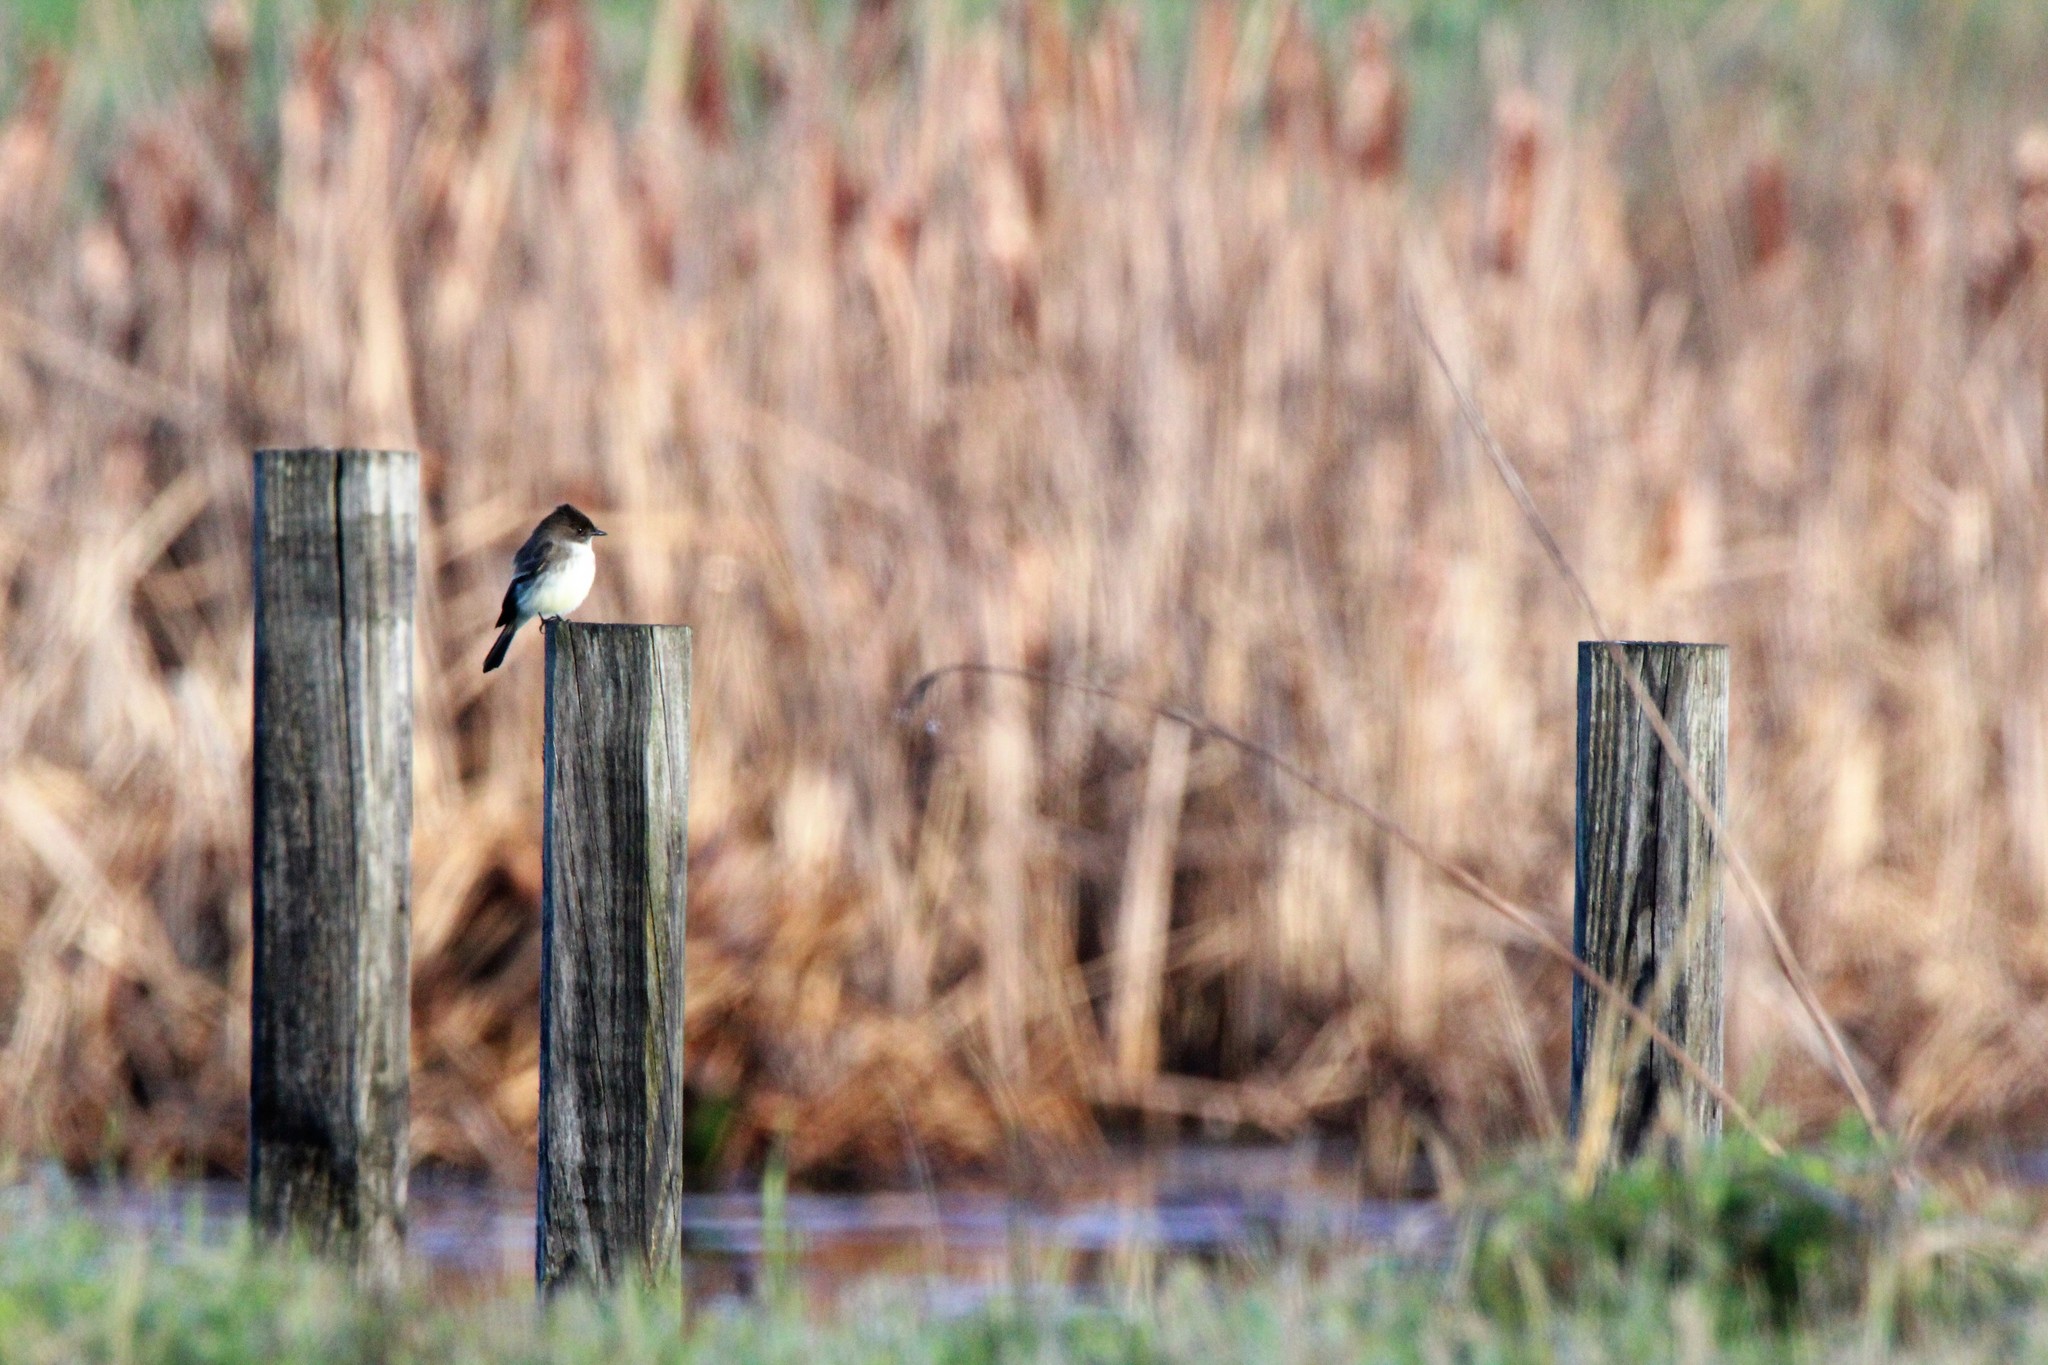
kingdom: Animalia
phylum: Chordata
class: Aves
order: Passeriformes
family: Tyrannidae
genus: Sayornis
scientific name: Sayornis phoebe
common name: Eastern phoebe
